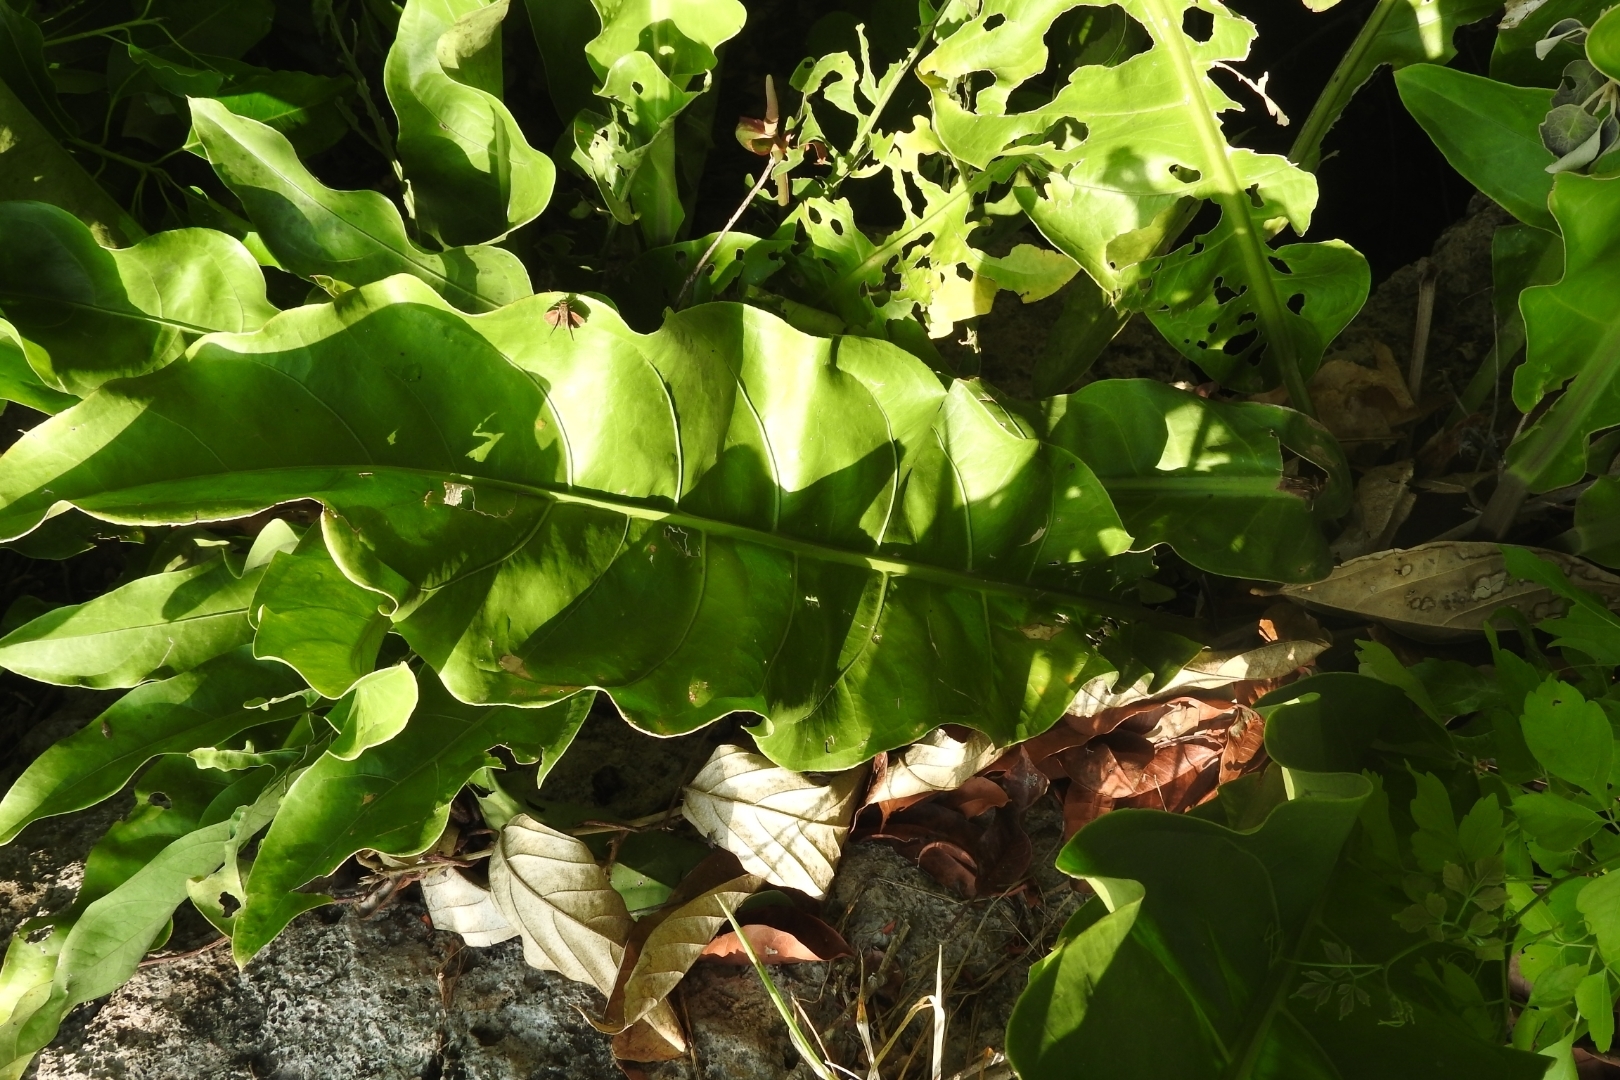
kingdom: Plantae
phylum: Tracheophyta
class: Liliopsida
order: Alismatales
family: Araceae
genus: Anthurium
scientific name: Anthurium schlechtendalii
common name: Laceleaf
